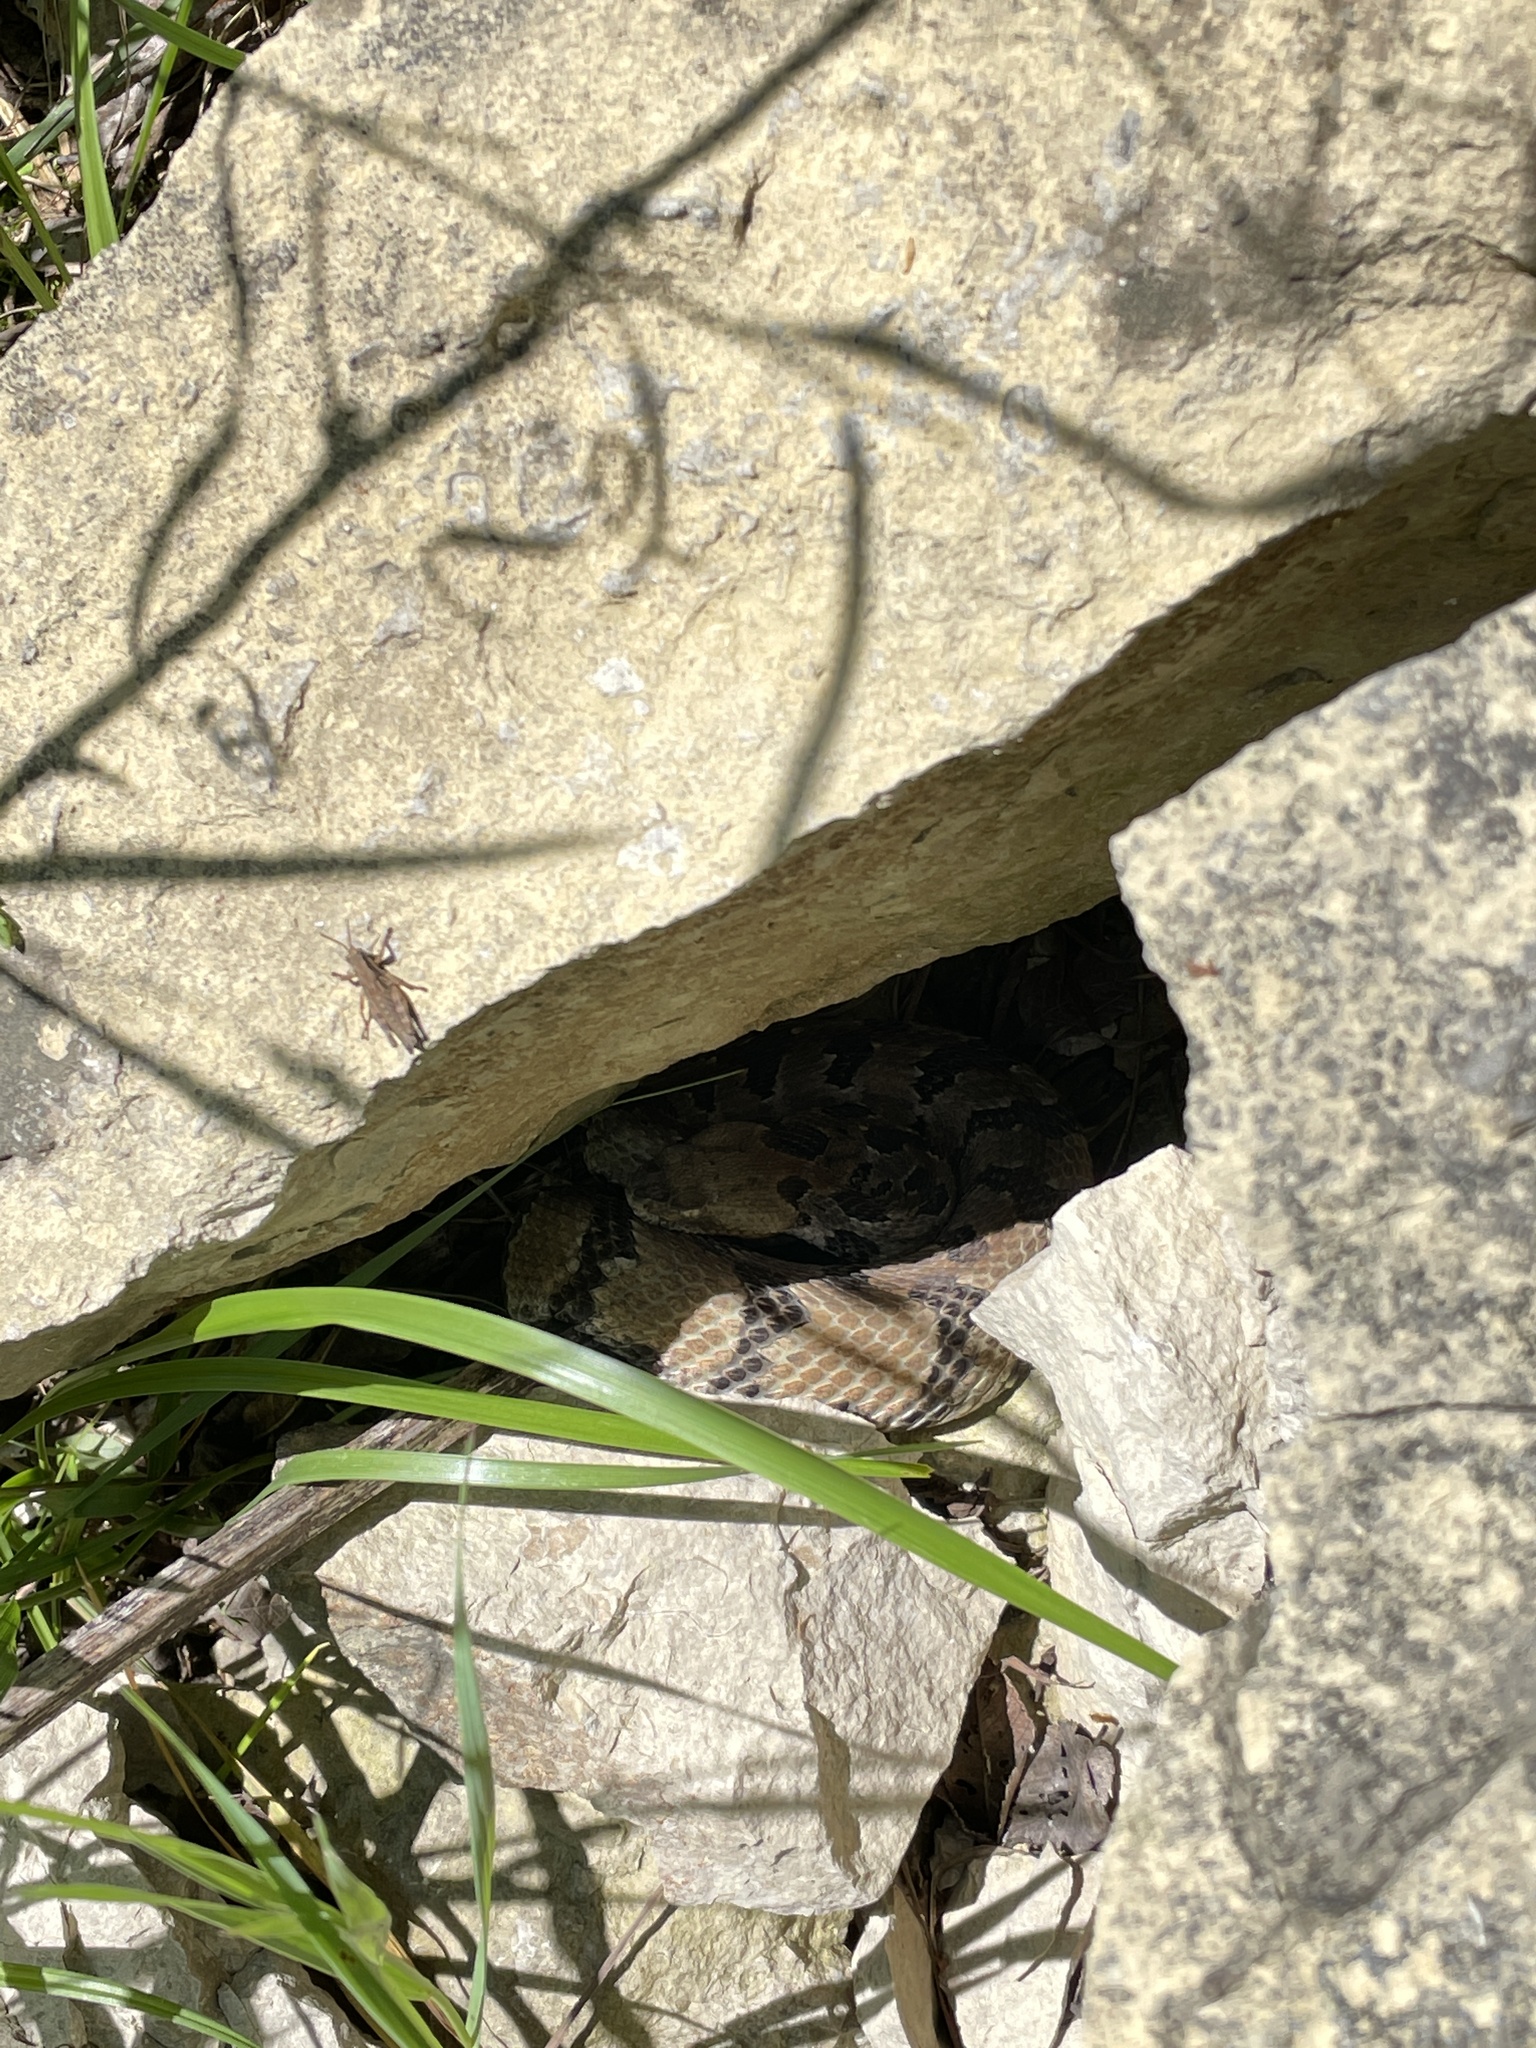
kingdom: Animalia
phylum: Chordata
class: Squamata
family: Viperidae
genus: Crotalus
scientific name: Crotalus horridus
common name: Timber rattlesnake
